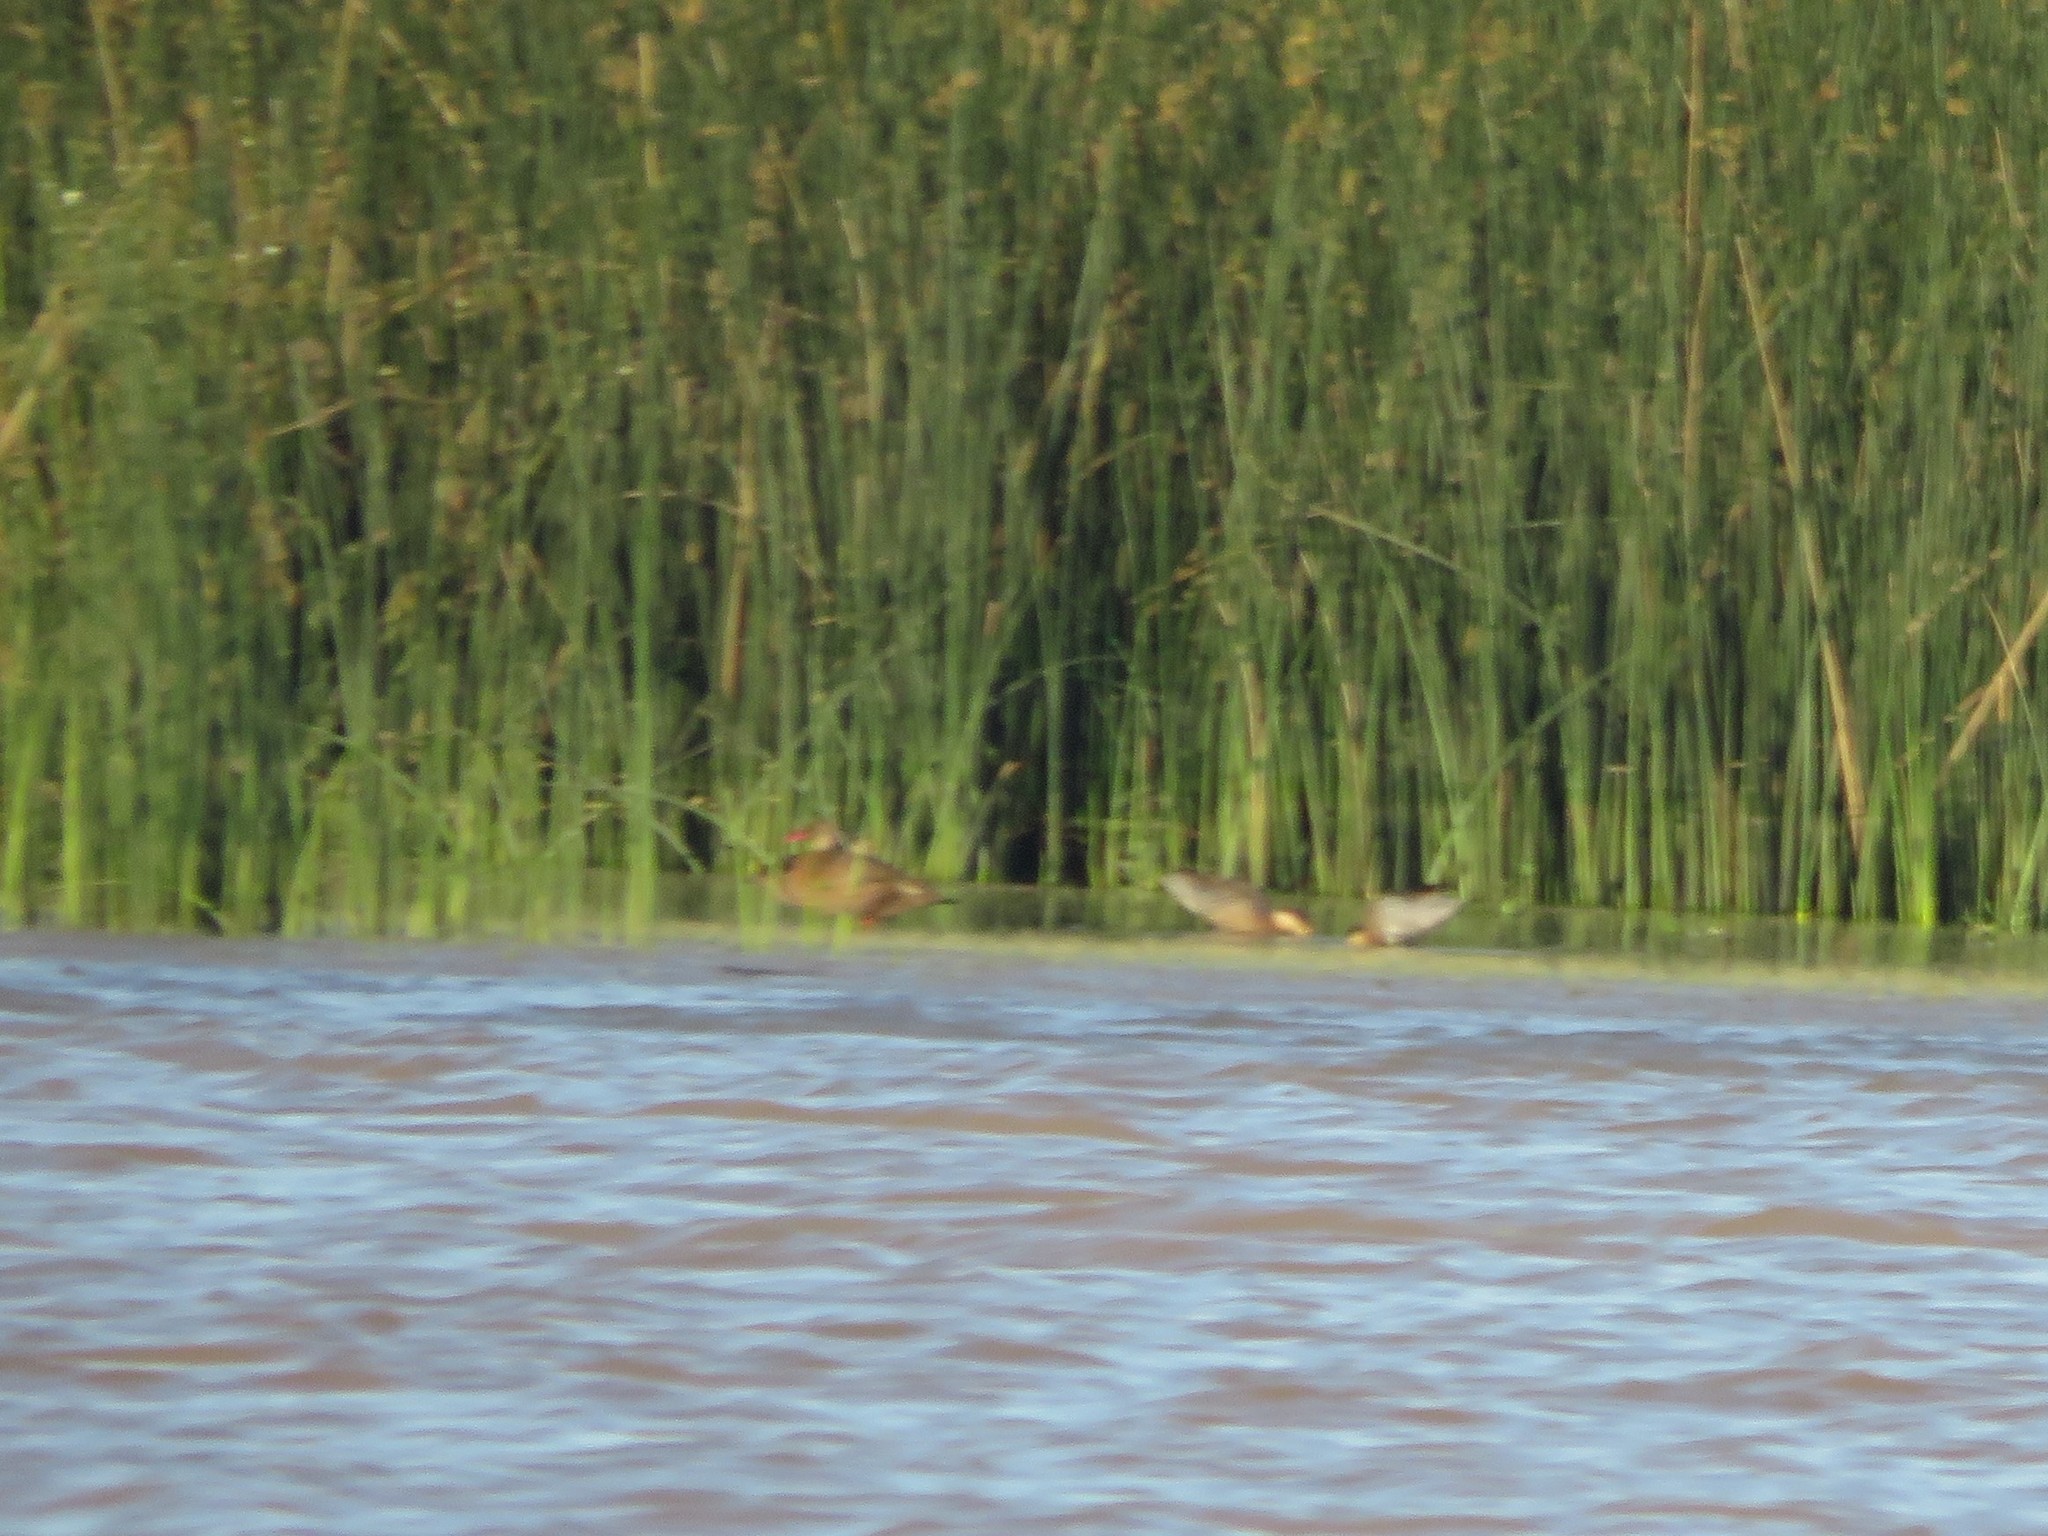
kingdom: Animalia
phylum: Chordata
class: Aves
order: Anseriformes
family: Anatidae
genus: Amazonetta
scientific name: Amazonetta brasiliensis
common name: Brazilian teal
